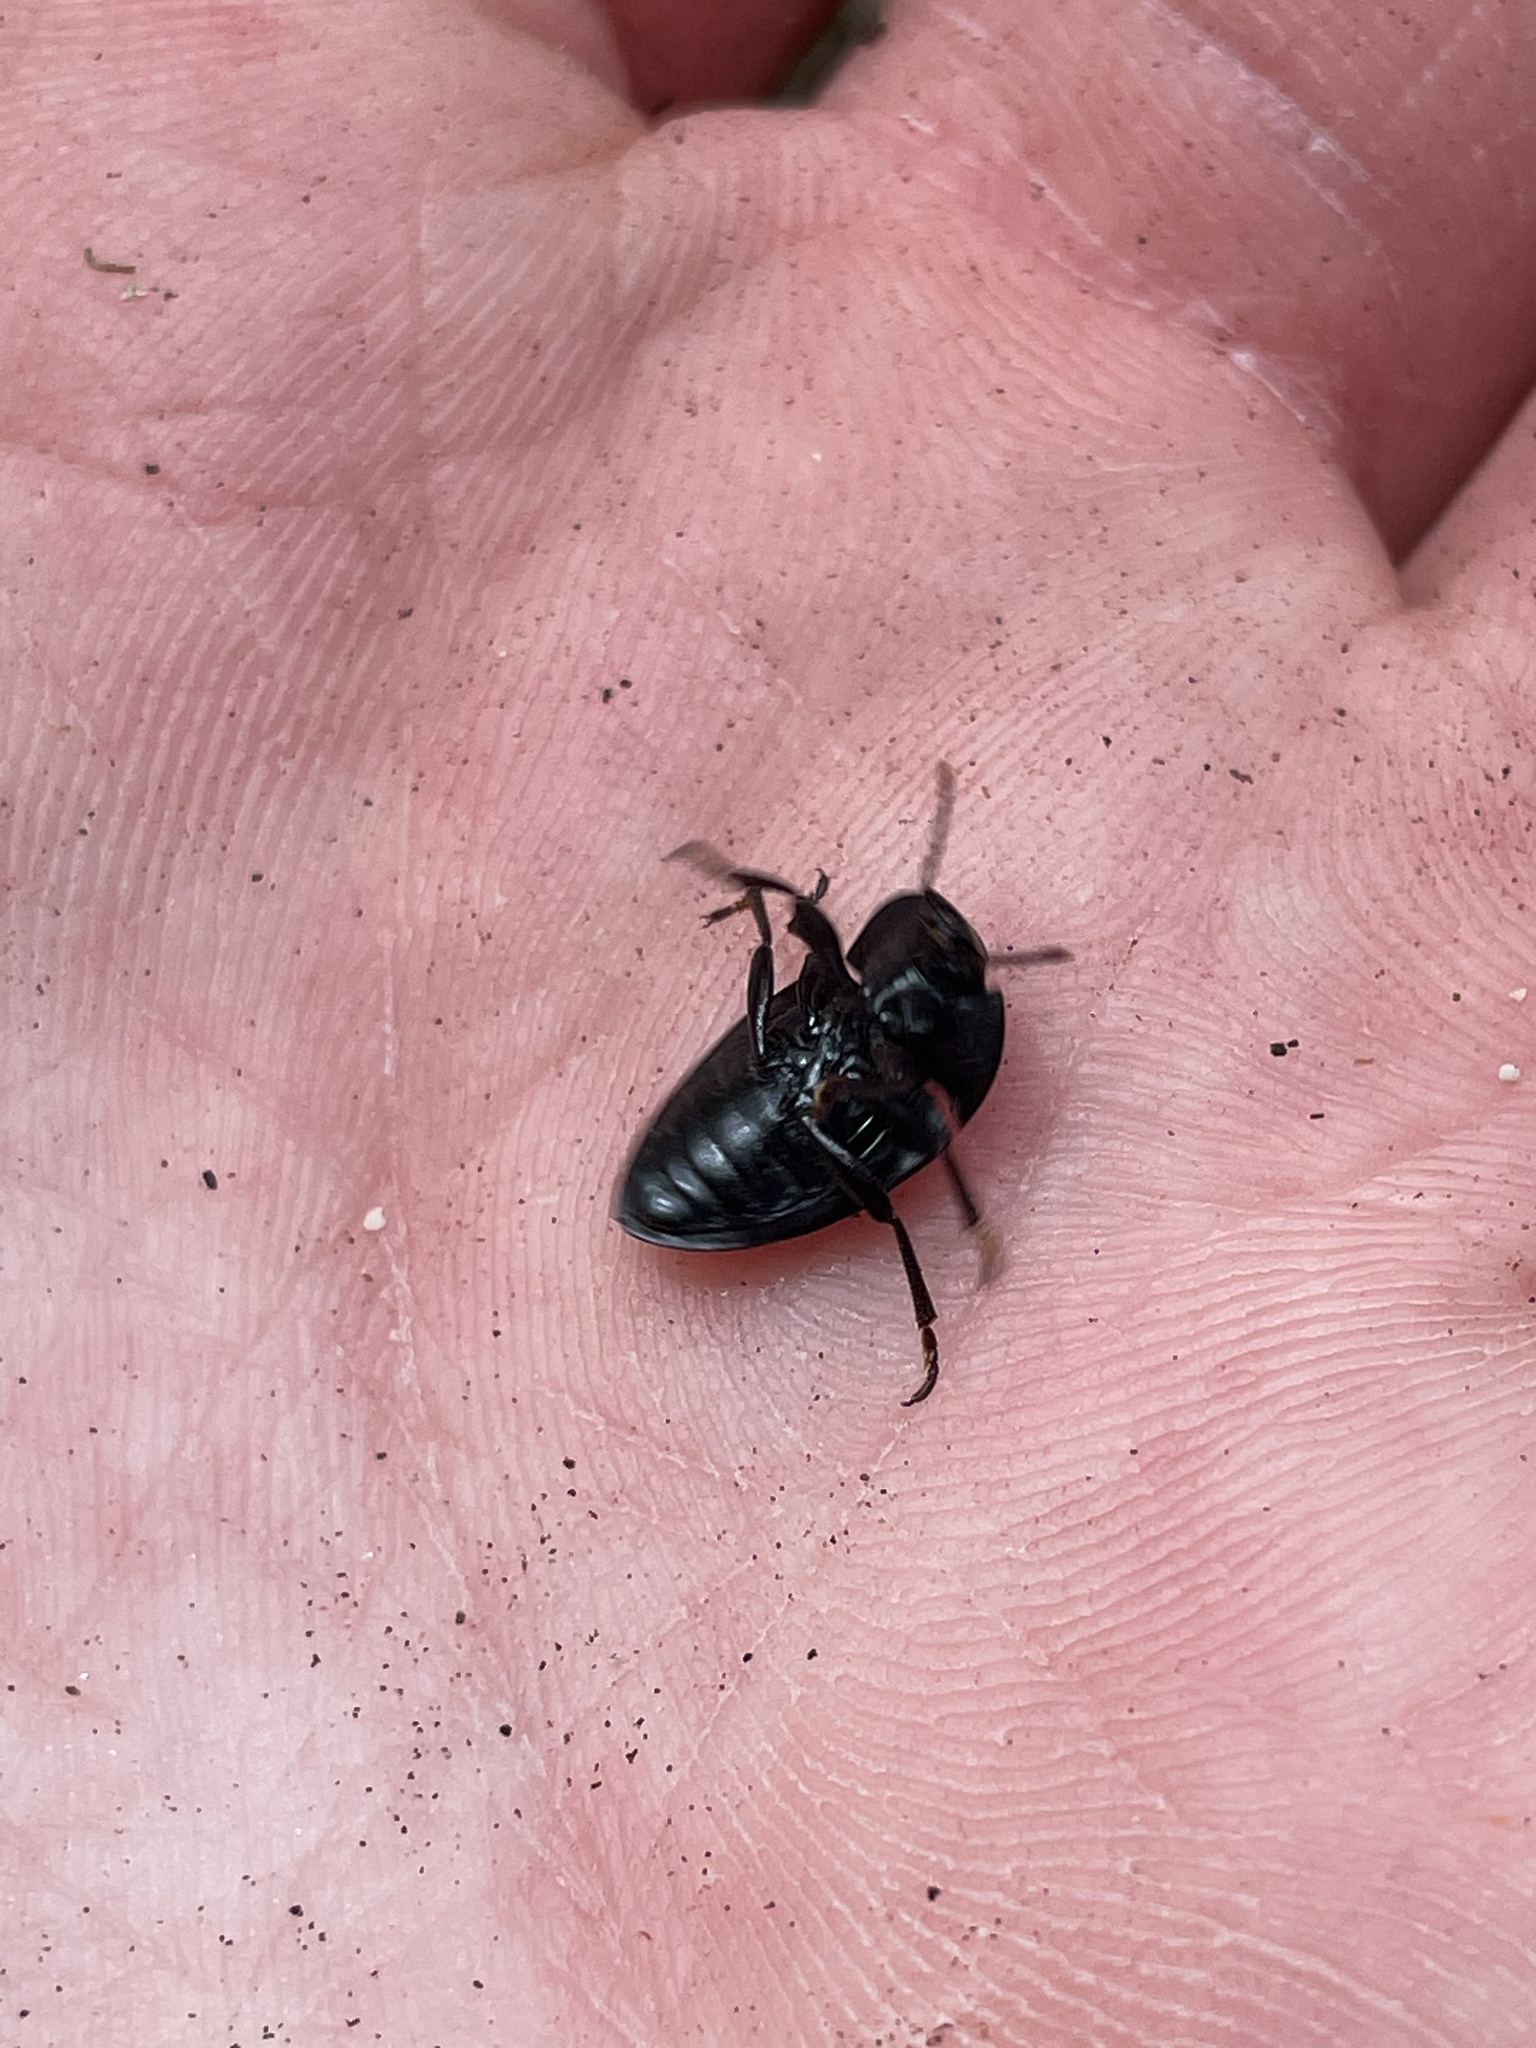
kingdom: Animalia
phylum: Arthropoda
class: Insecta
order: Coleoptera
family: Tenebrionidae
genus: Platylus
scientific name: Platylus dilatatus
